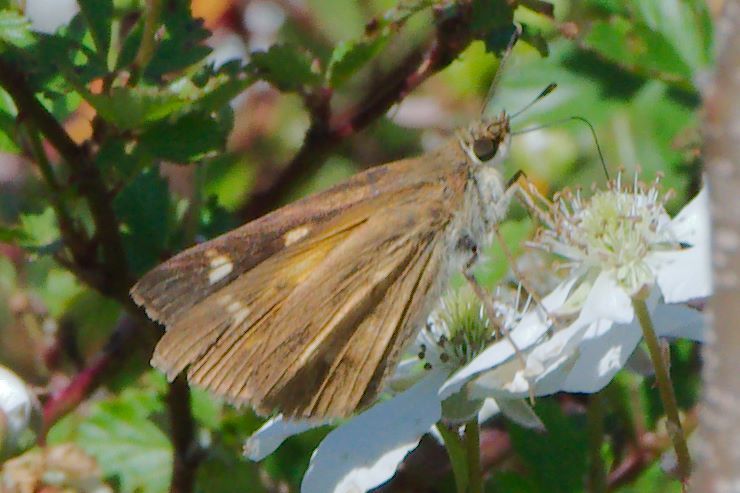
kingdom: Animalia
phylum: Arthropoda
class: Insecta
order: Lepidoptera
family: Hesperiidae
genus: Poanes
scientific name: Poanes viator
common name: Broad-winged skipper
